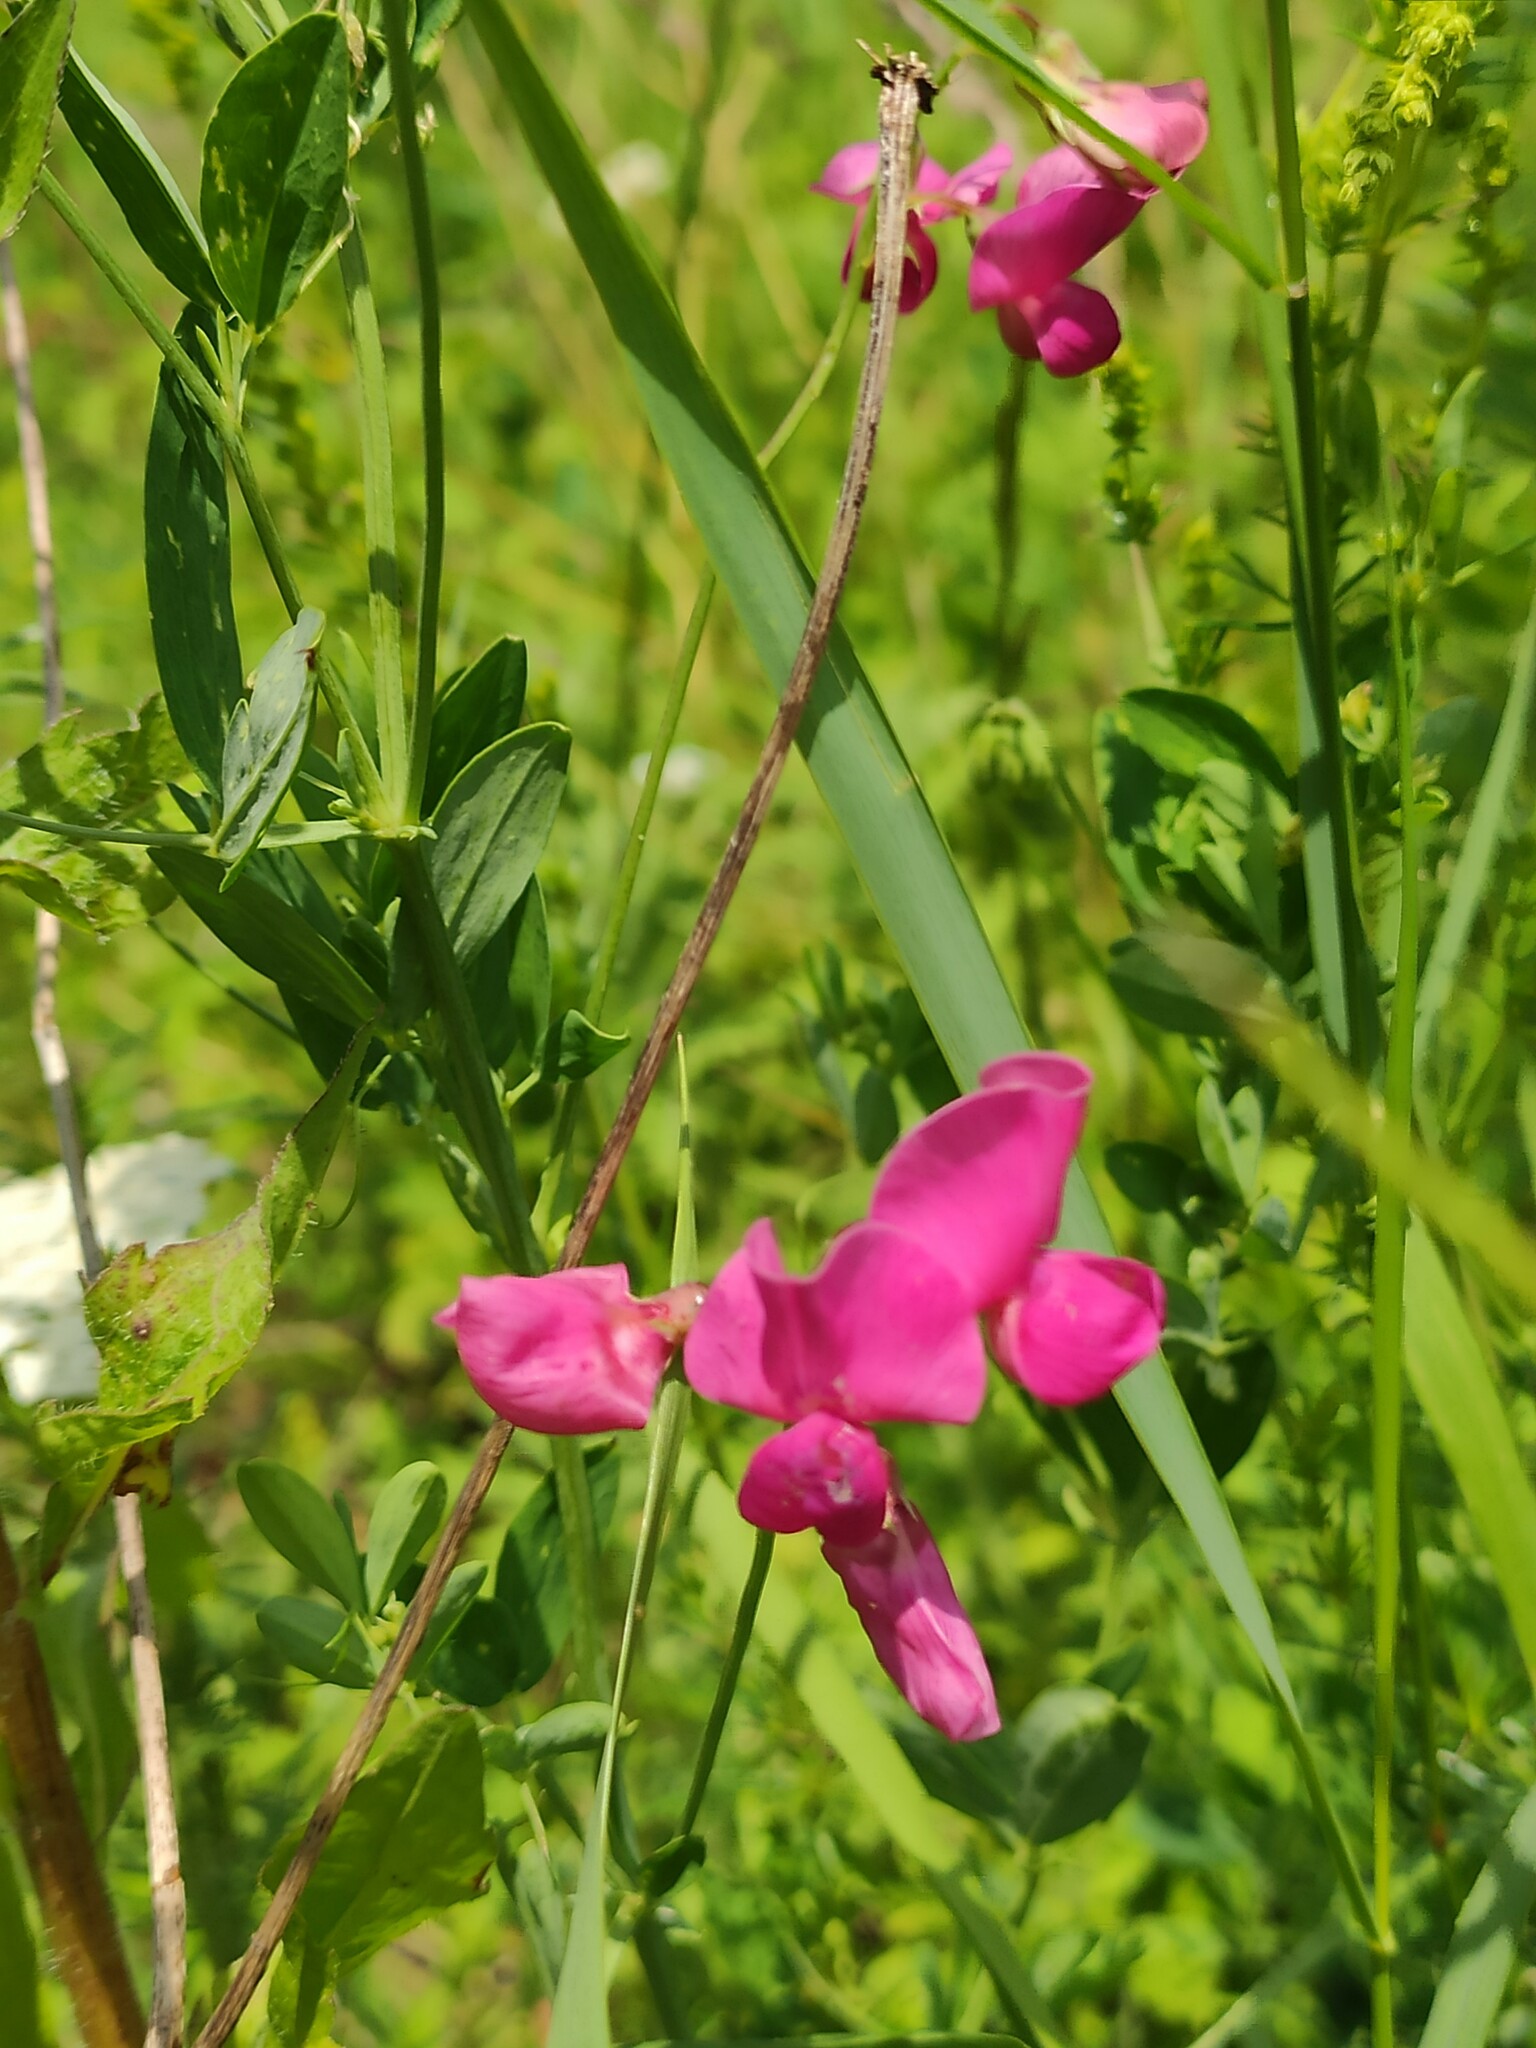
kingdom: Plantae
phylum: Tracheophyta
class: Magnoliopsida
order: Fabales
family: Fabaceae
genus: Lathyrus
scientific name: Lathyrus tuberosus
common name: Tuberous pea
